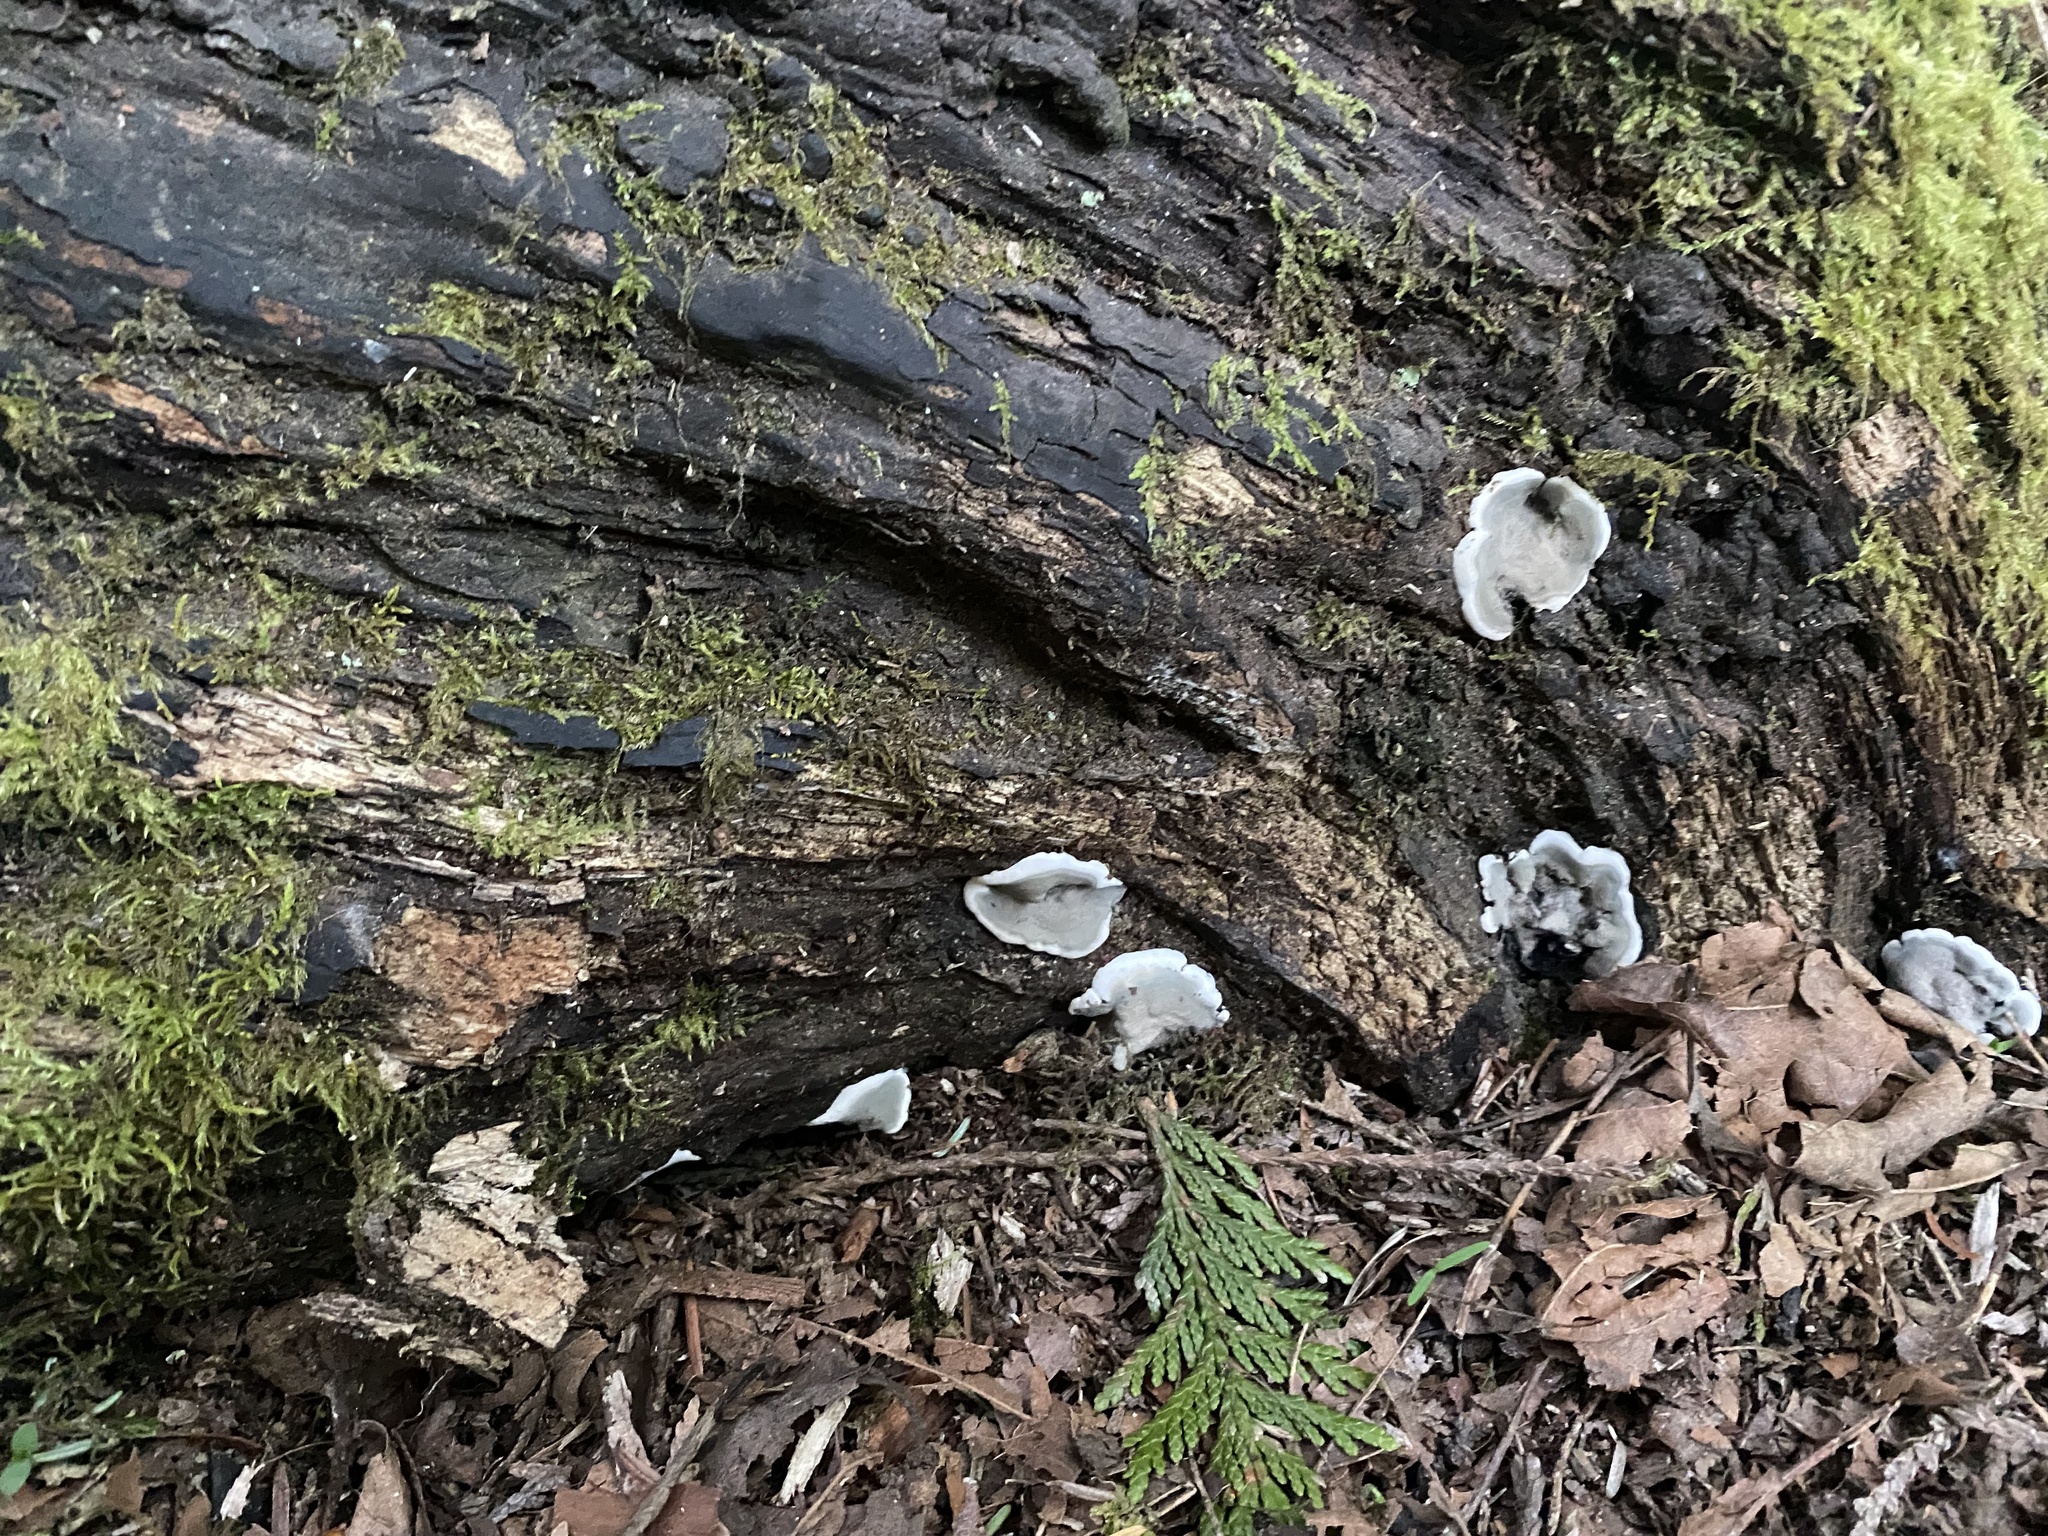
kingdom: Fungi
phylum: Ascomycota
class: Sordariomycetes
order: Xylariales
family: Xylariaceae
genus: Kretzschmaria
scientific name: Kretzschmaria deusta
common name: Brittle cinder
